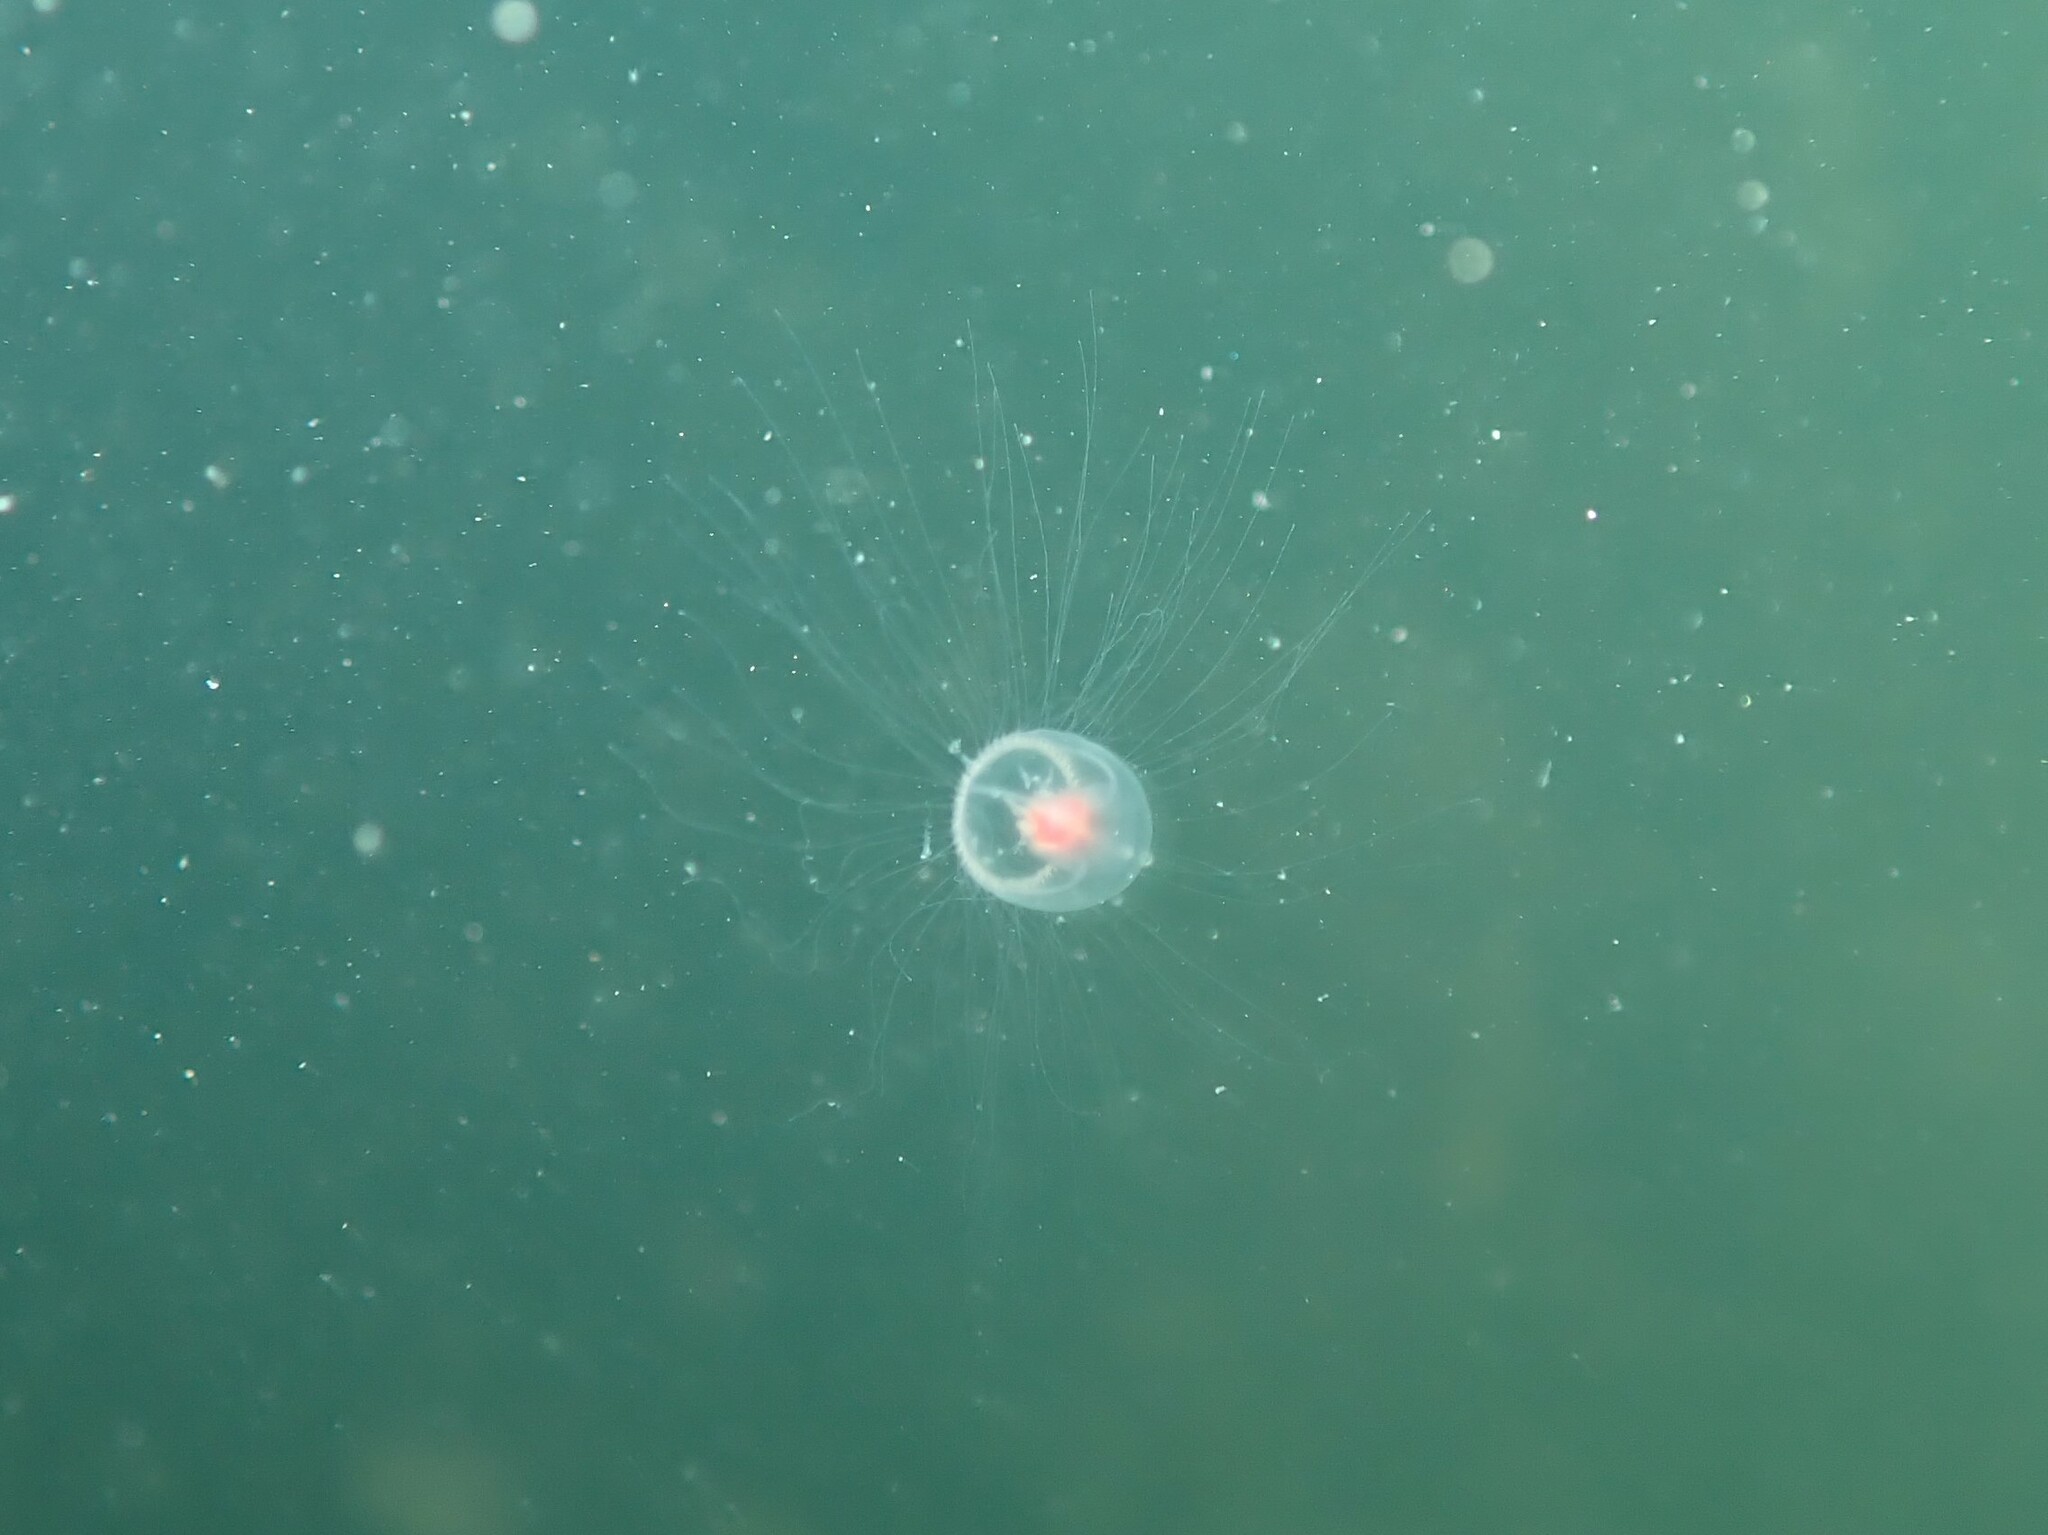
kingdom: Animalia
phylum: Cnidaria
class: Hydrozoa
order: Anthoathecata
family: Oceaniidae
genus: Turritopsis
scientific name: Turritopsis rubra
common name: Crimson jelly
